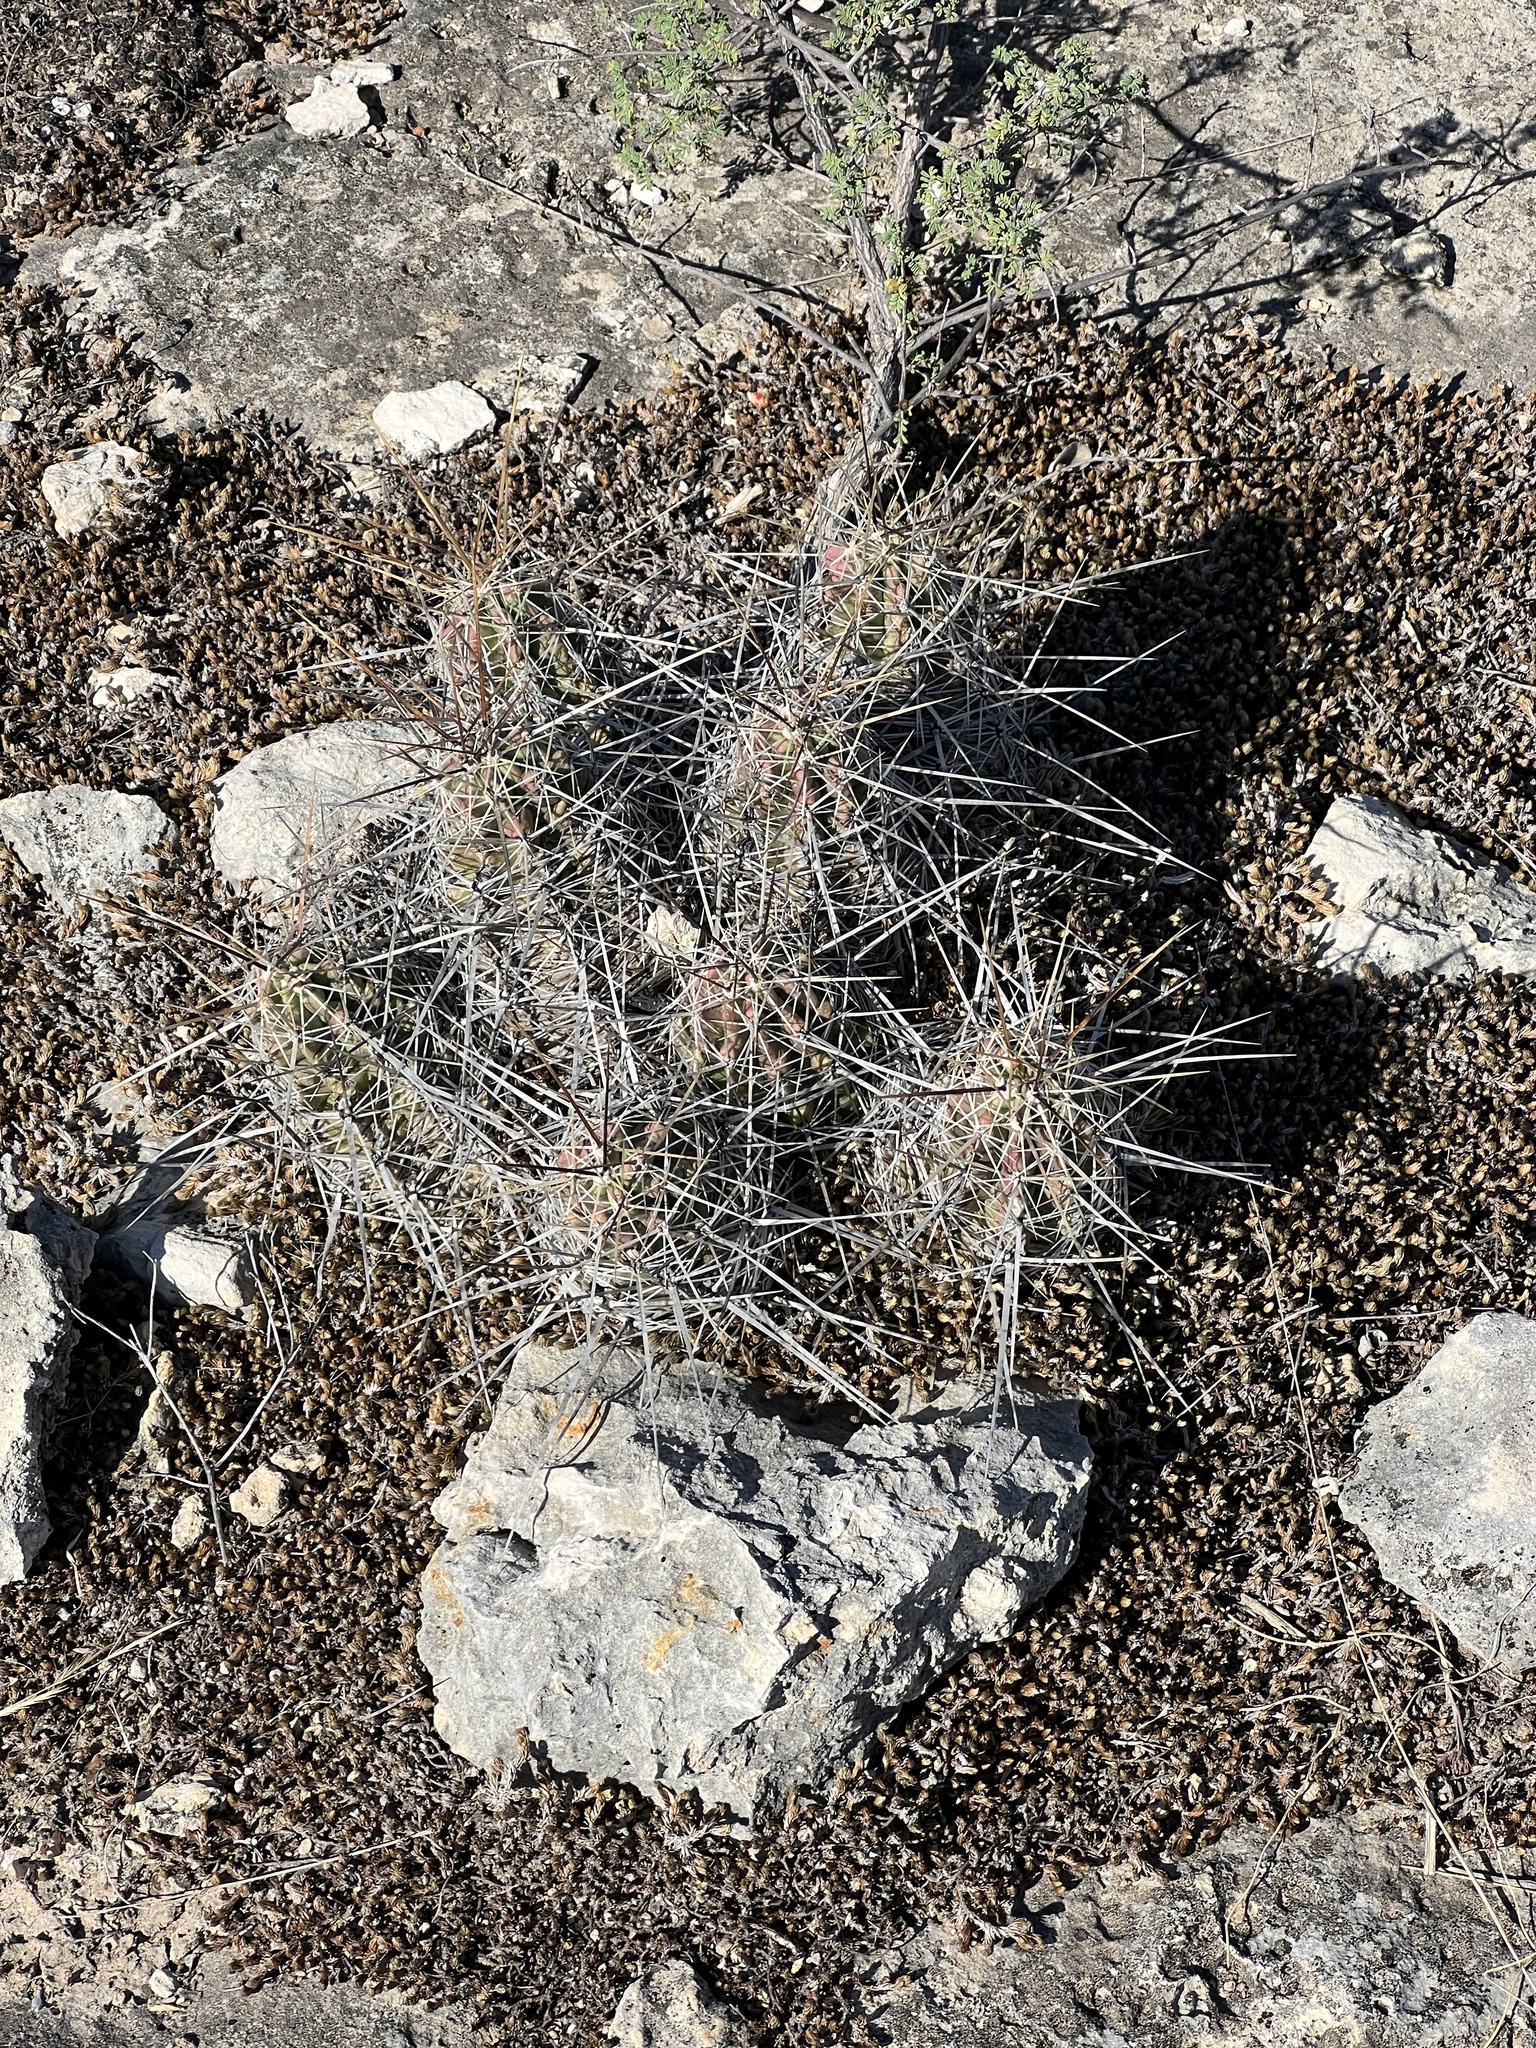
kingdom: Plantae
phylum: Tracheophyta
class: Magnoliopsida
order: Caryophyllales
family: Cactaceae
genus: Echinocereus
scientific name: Echinocereus enneacanthus
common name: Pitaya
